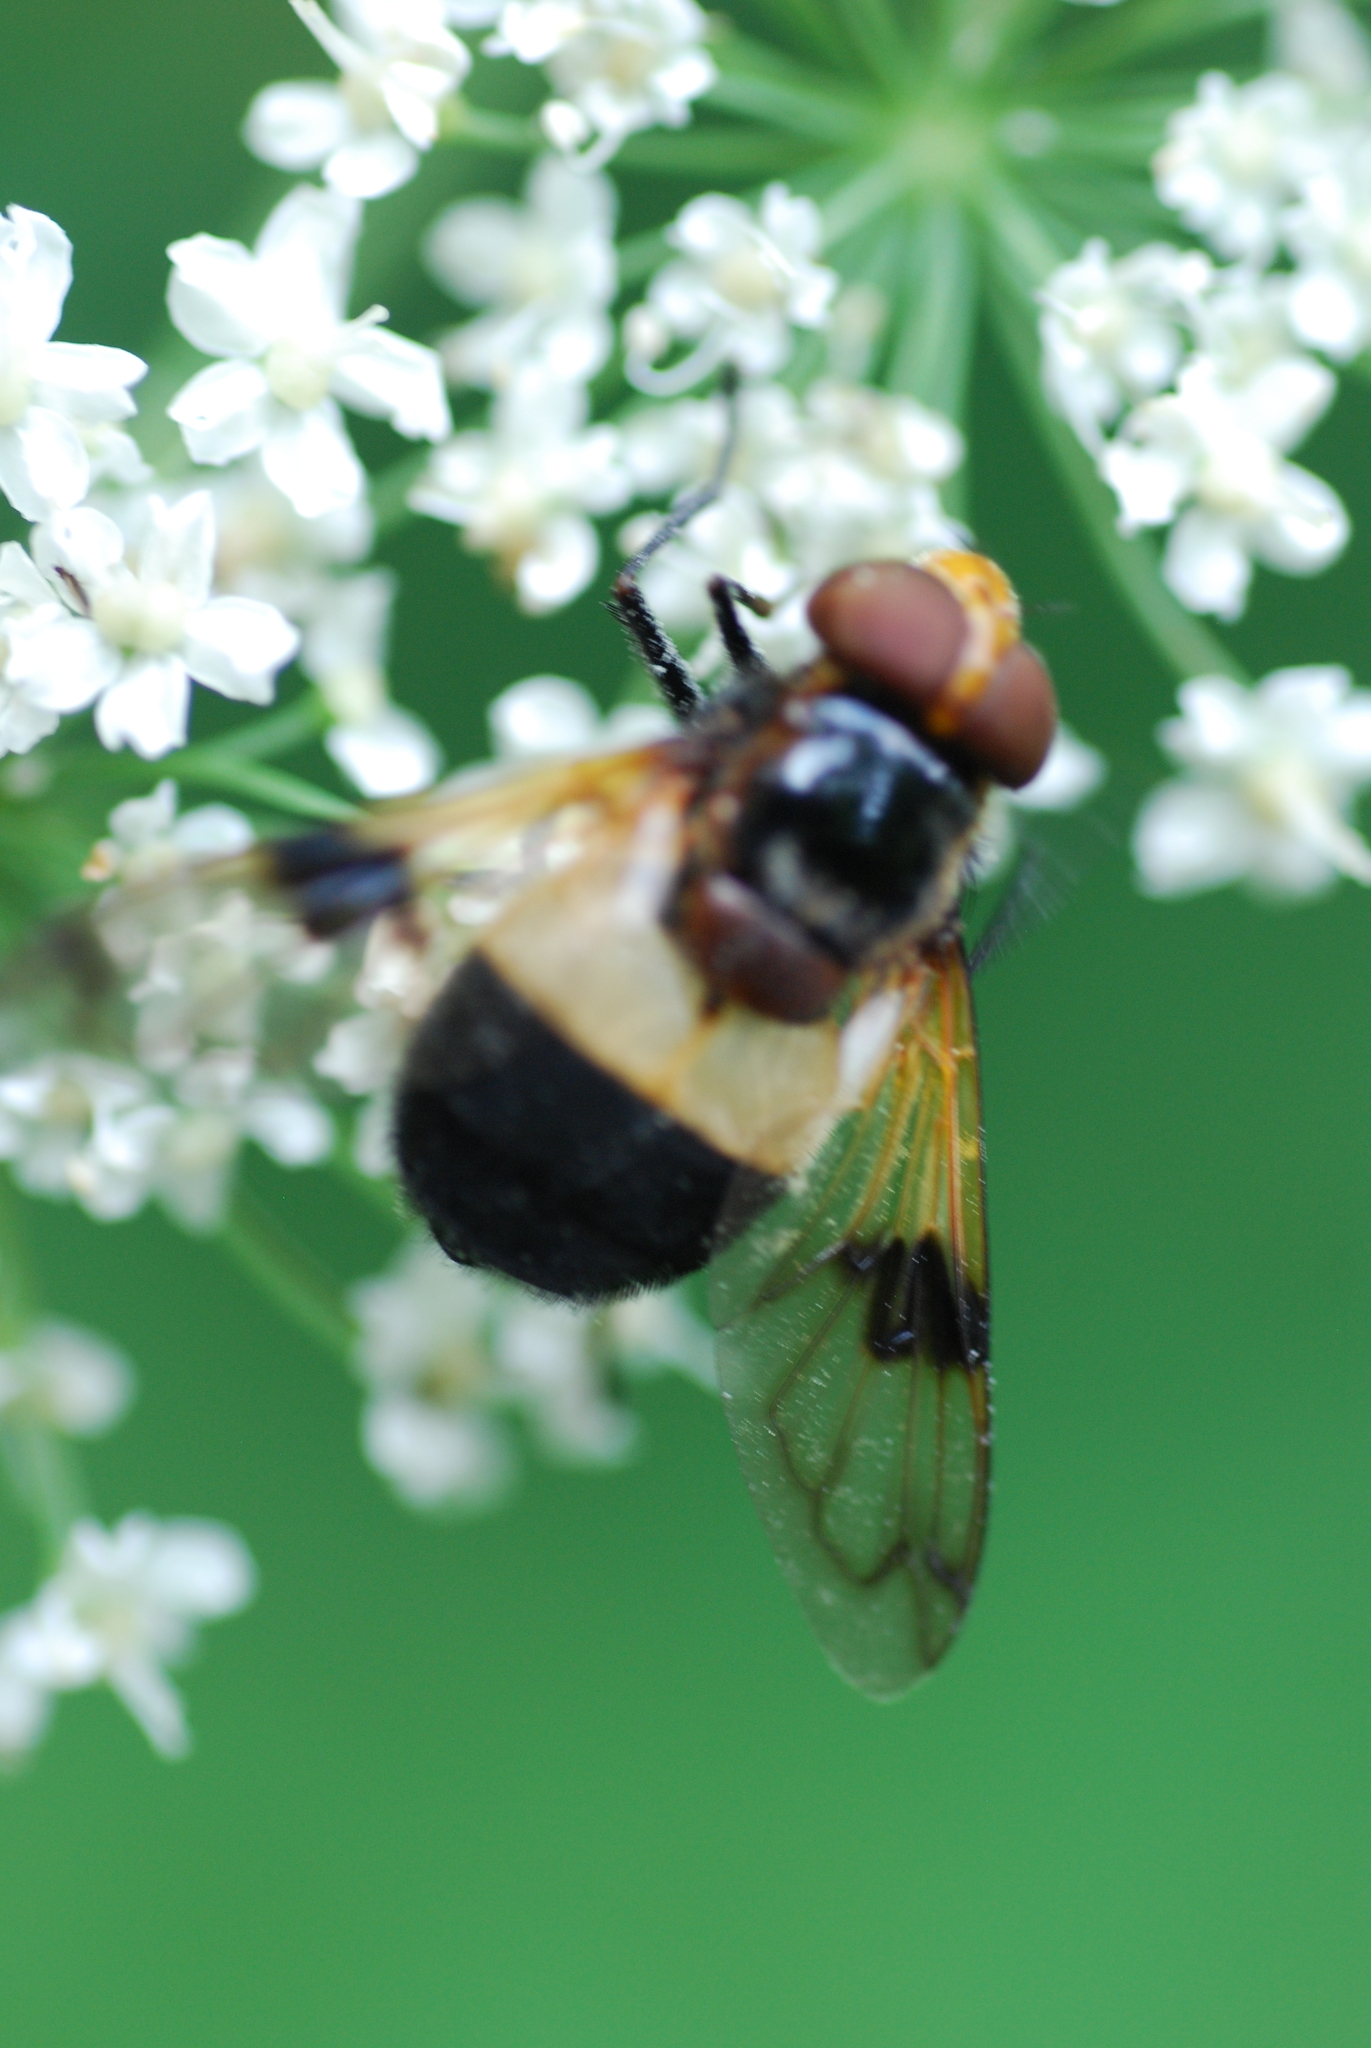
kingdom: Animalia
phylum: Arthropoda
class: Insecta
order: Diptera
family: Syrphidae
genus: Volucella
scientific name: Volucella pellucens
